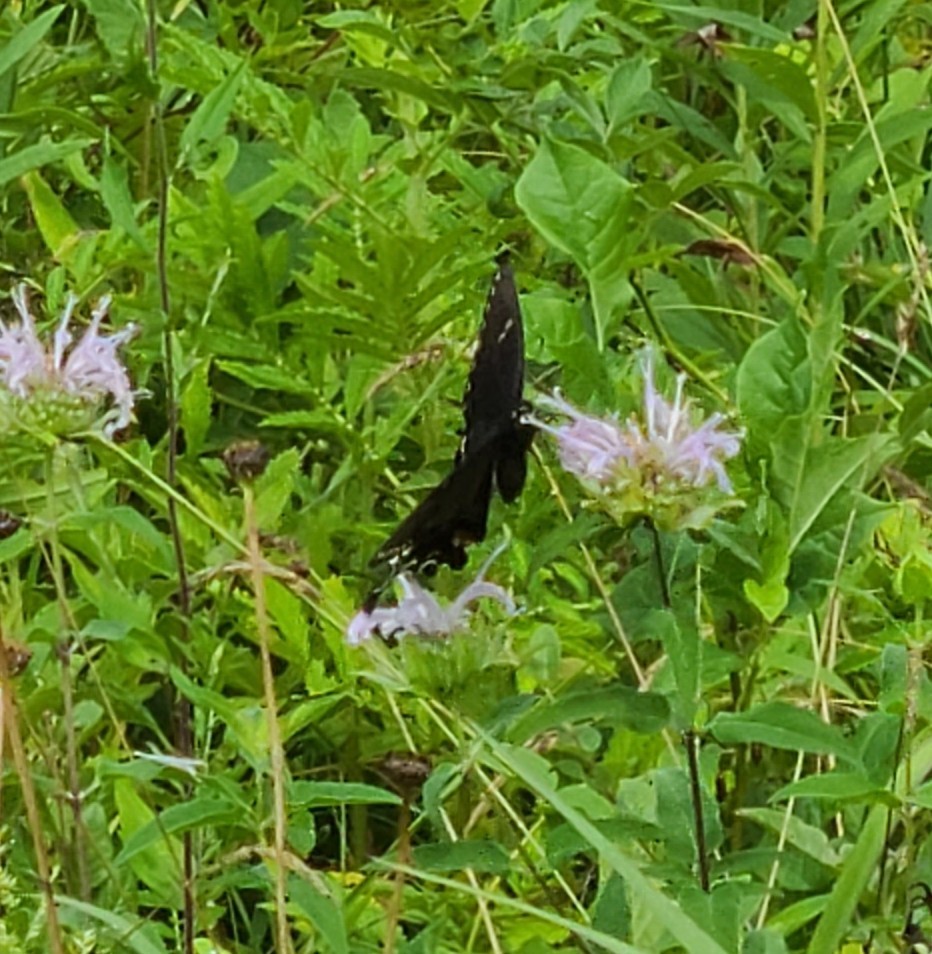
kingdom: Animalia
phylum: Arthropoda
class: Insecta
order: Lepidoptera
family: Papilionidae
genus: Papilio
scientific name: Papilio glaucus
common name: Tiger swallowtail
